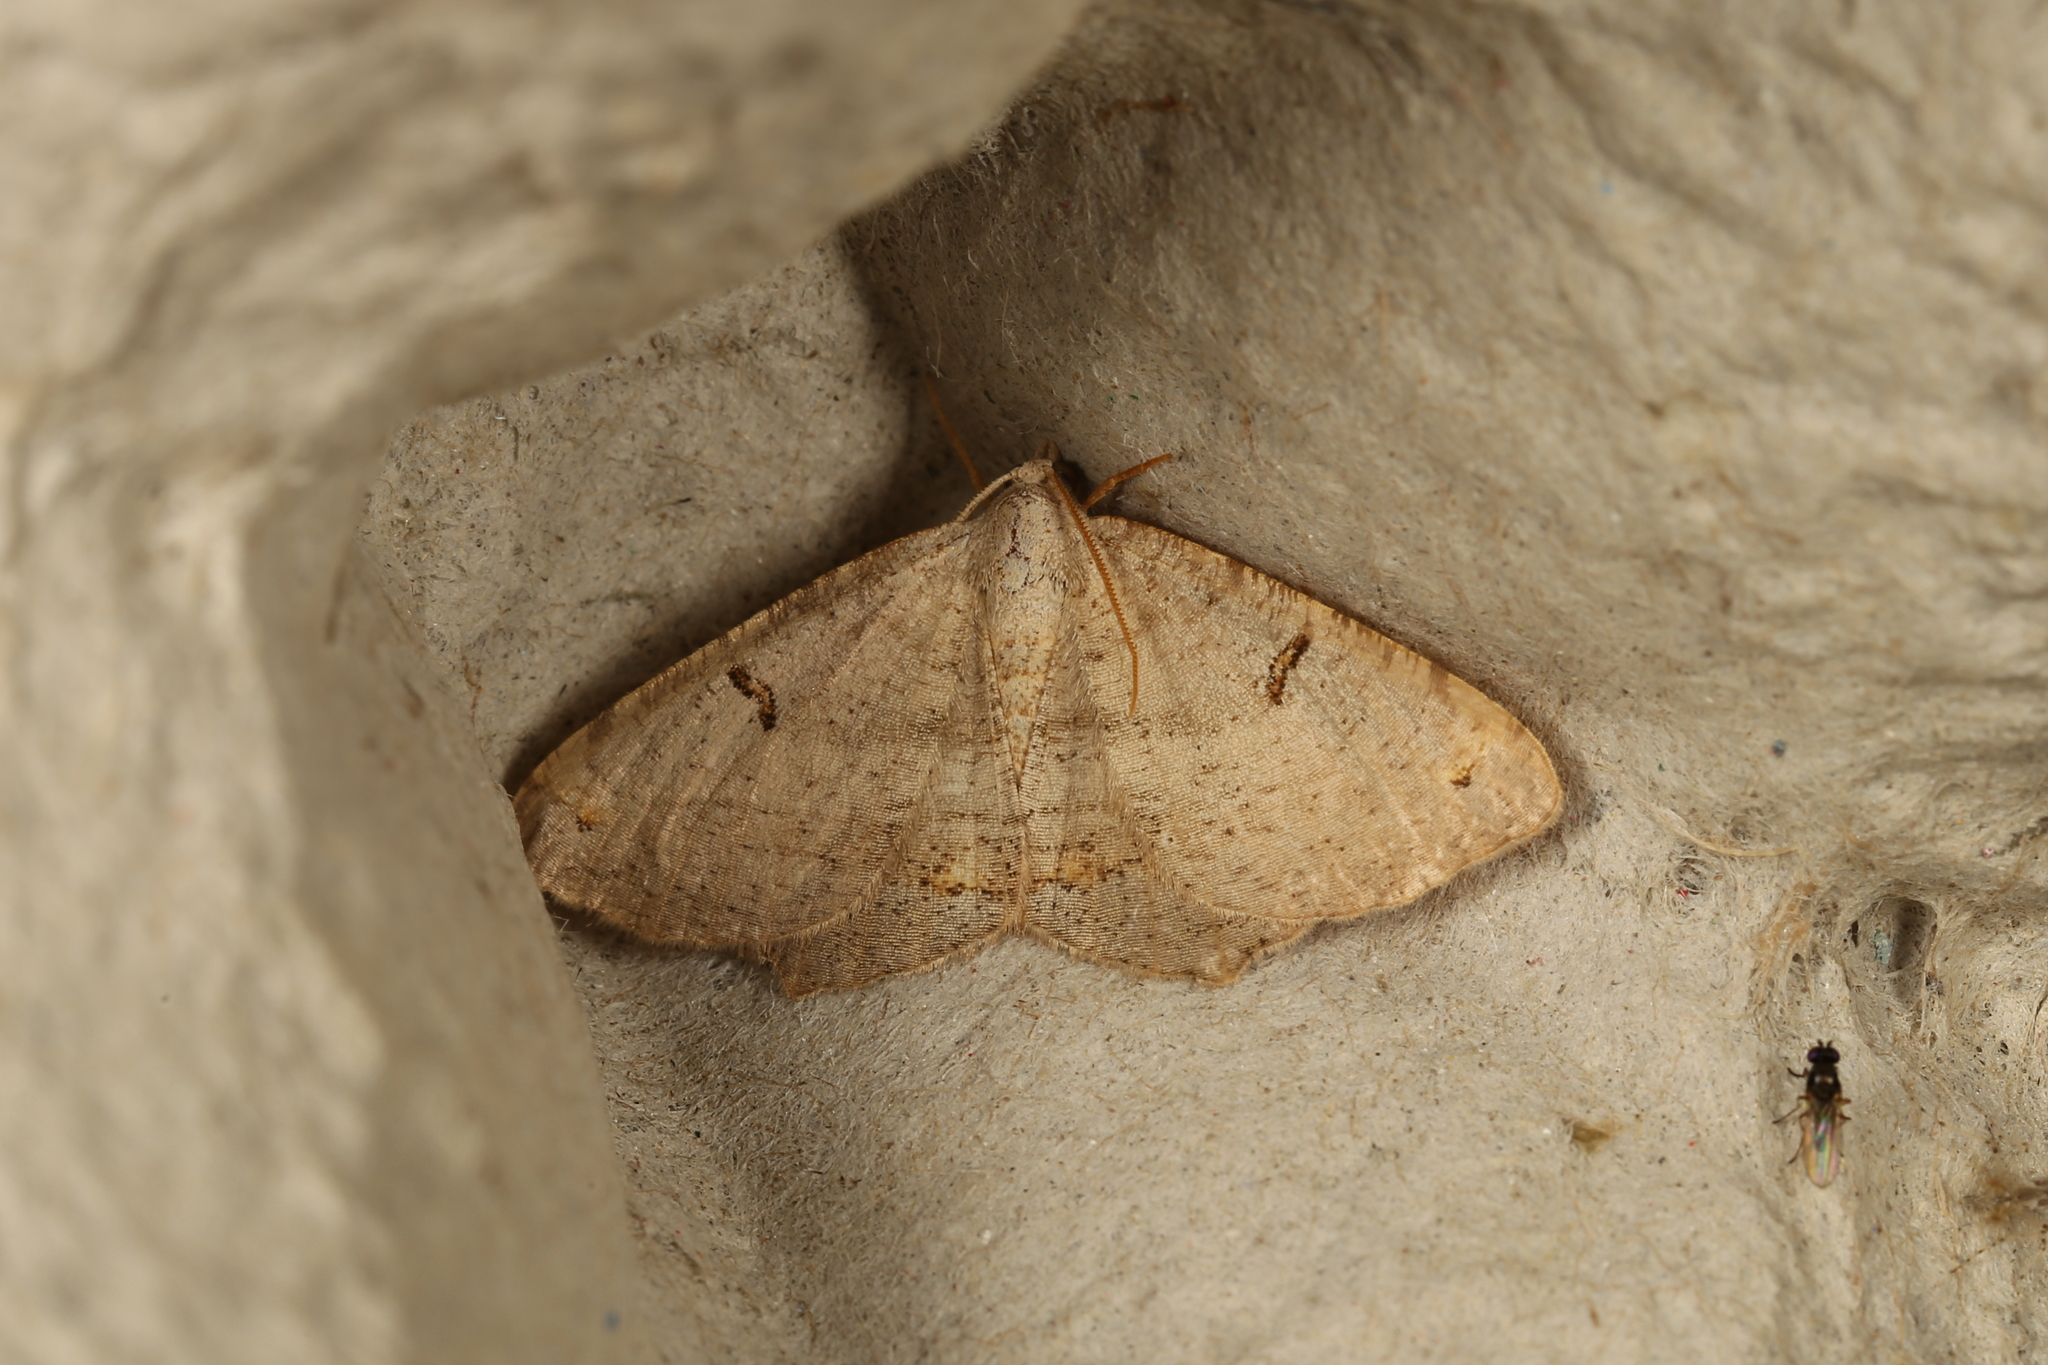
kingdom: Animalia
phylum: Arthropoda
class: Insecta
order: Lepidoptera
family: Geometridae
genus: Dissomorphia
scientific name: Dissomorphia australiaria
